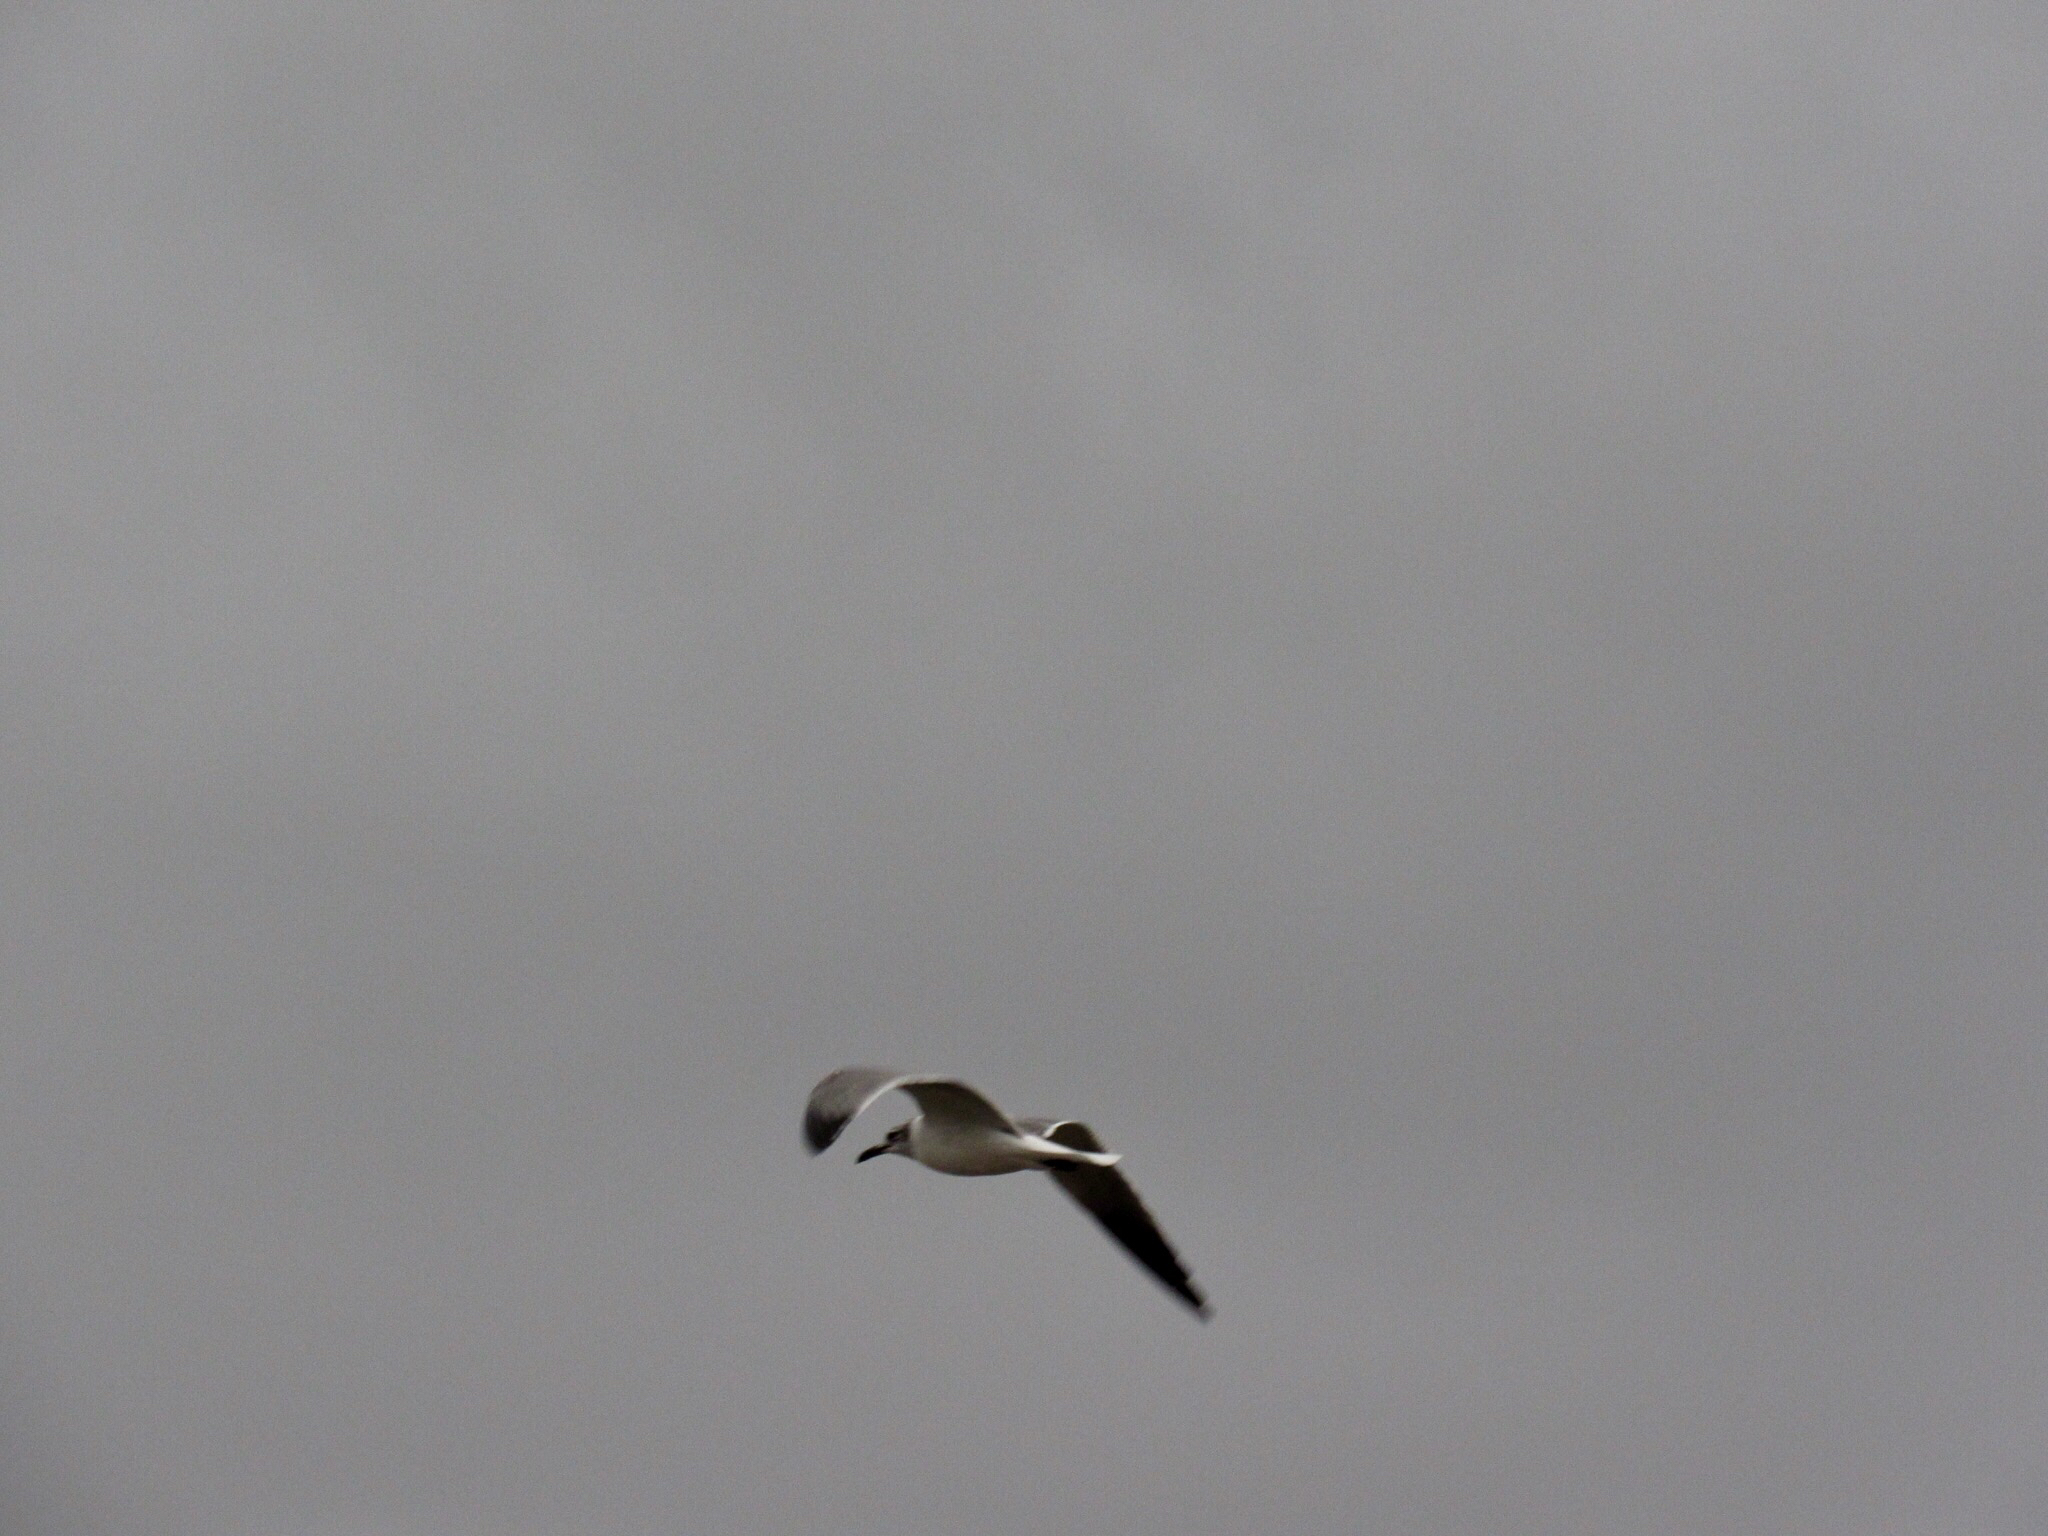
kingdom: Animalia
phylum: Chordata
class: Aves
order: Charadriiformes
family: Laridae
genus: Leucophaeus
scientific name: Leucophaeus atricilla
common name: Laughing gull
